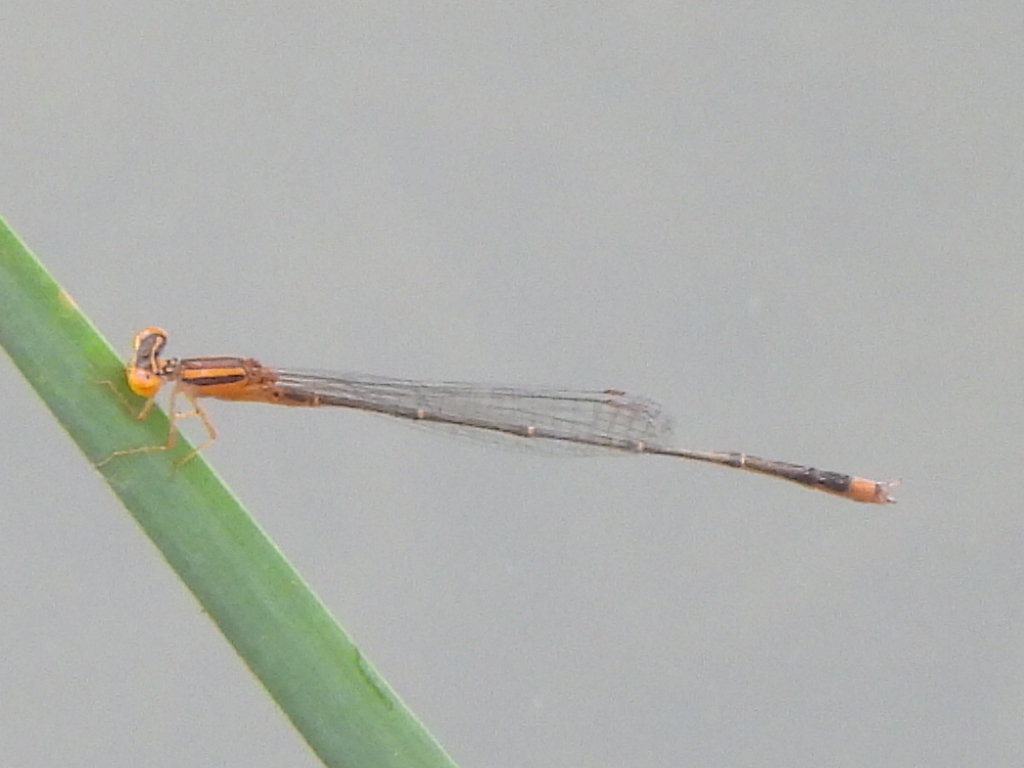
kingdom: Animalia
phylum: Arthropoda
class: Insecta
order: Odonata
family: Coenagrionidae
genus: Enallagma
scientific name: Enallagma signatum
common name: Orange bluet
